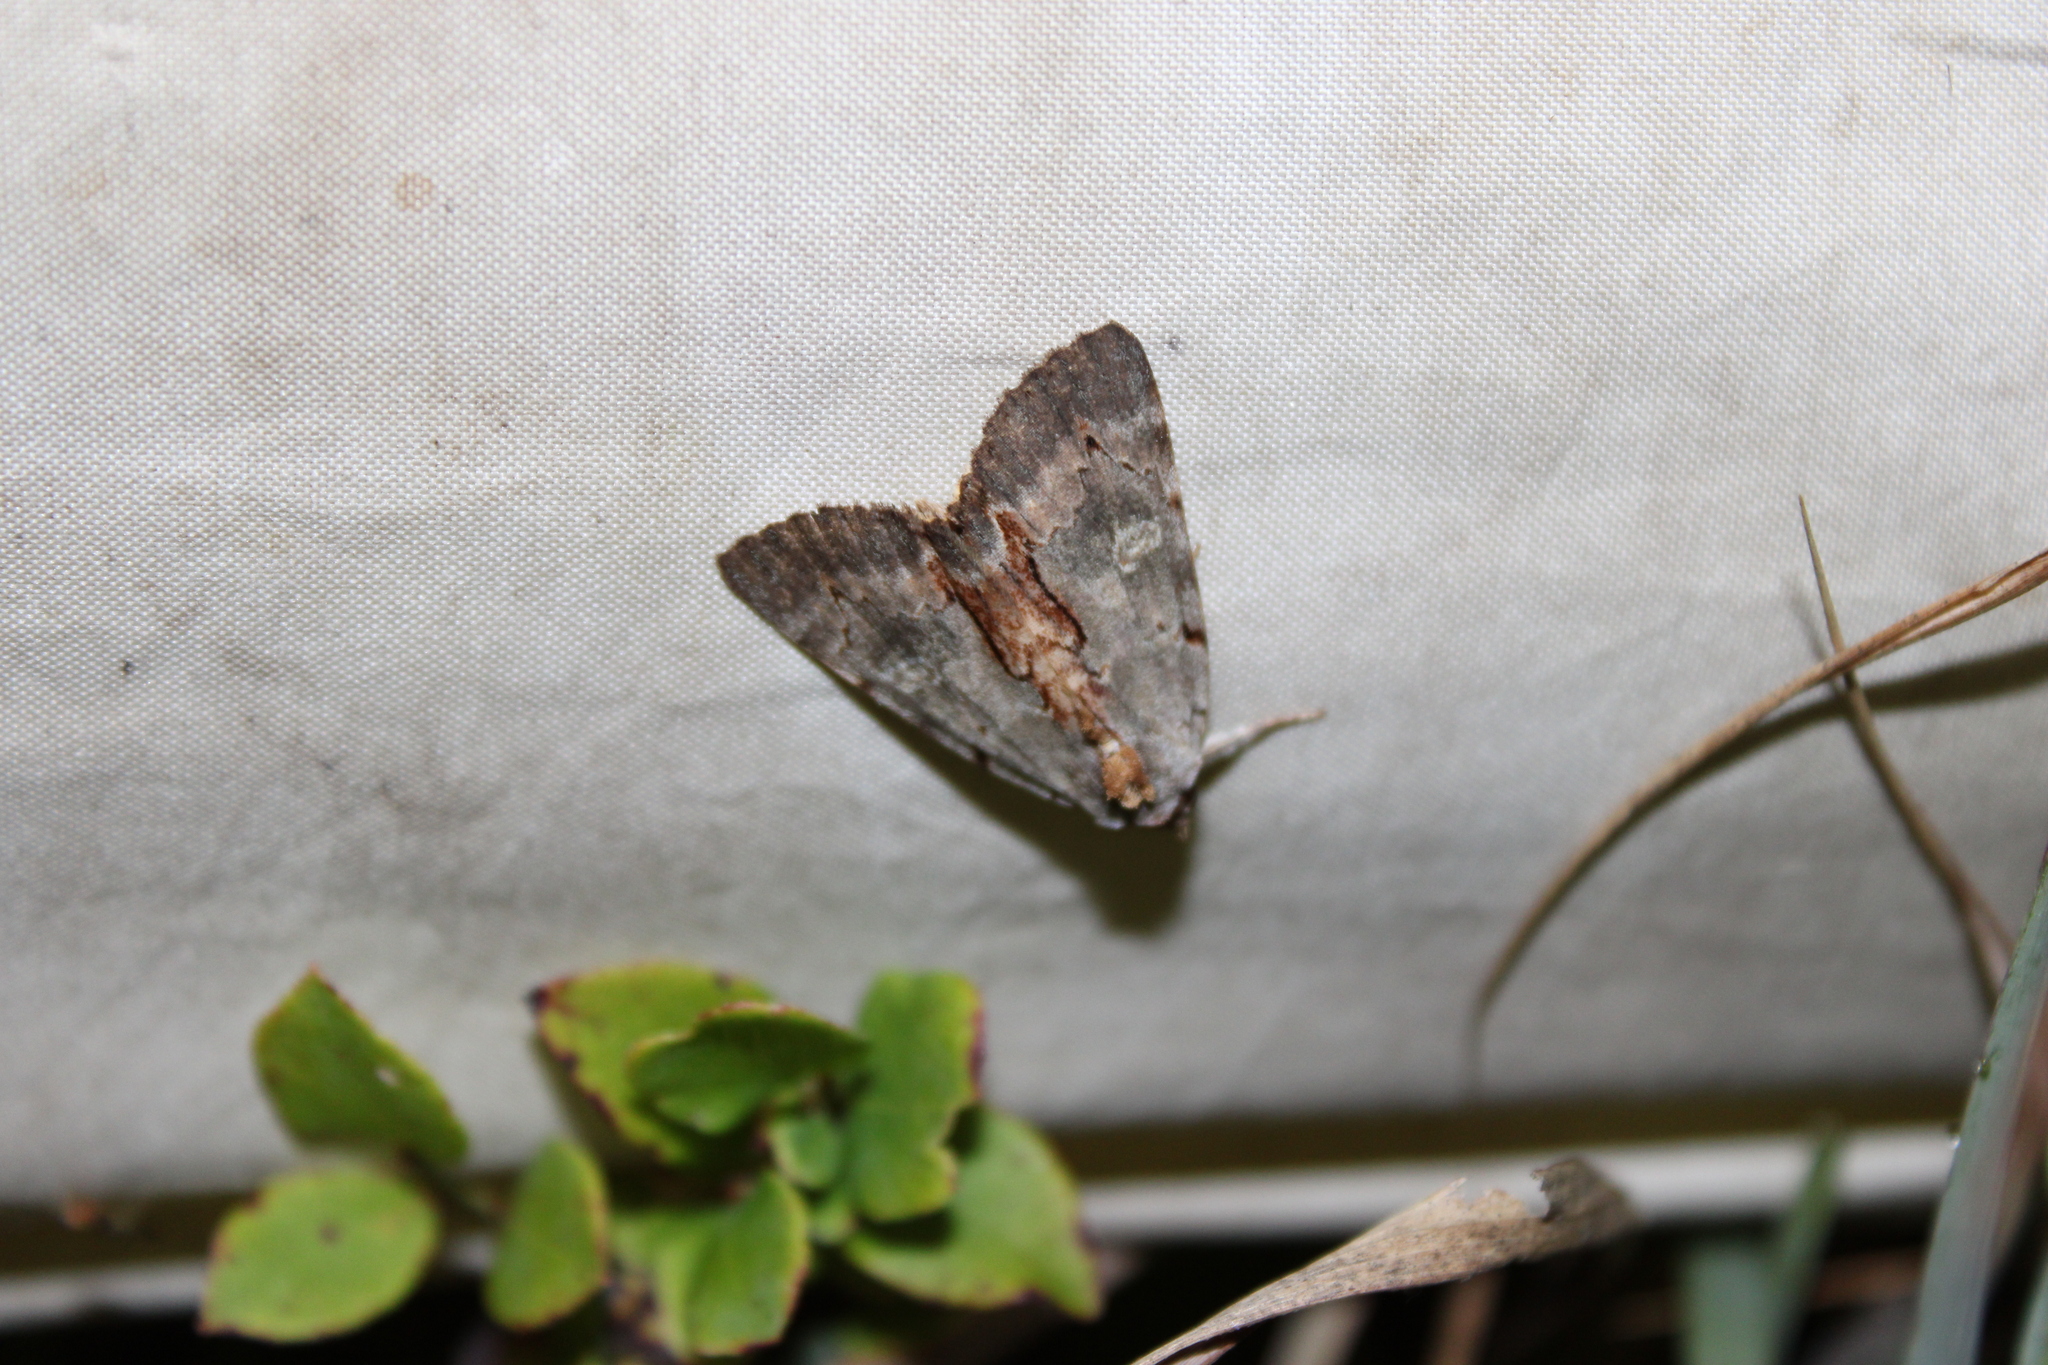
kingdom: Animalia
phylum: Arthropoda
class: Insecta
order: Lepidoptera
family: Erebidae
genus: Catocala
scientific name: Catocala grynea
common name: Woody underwing
